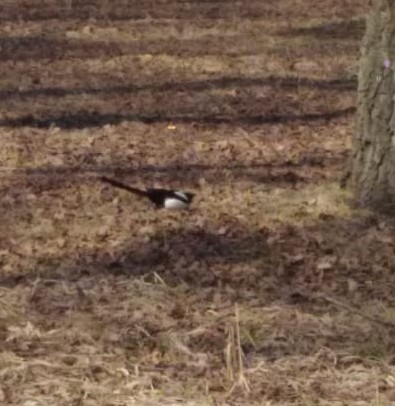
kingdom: Animalia
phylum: Chordata
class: Aves
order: Passeriformes
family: Corvidae
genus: Pica
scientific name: Pica pica
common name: Eurasian magpie
